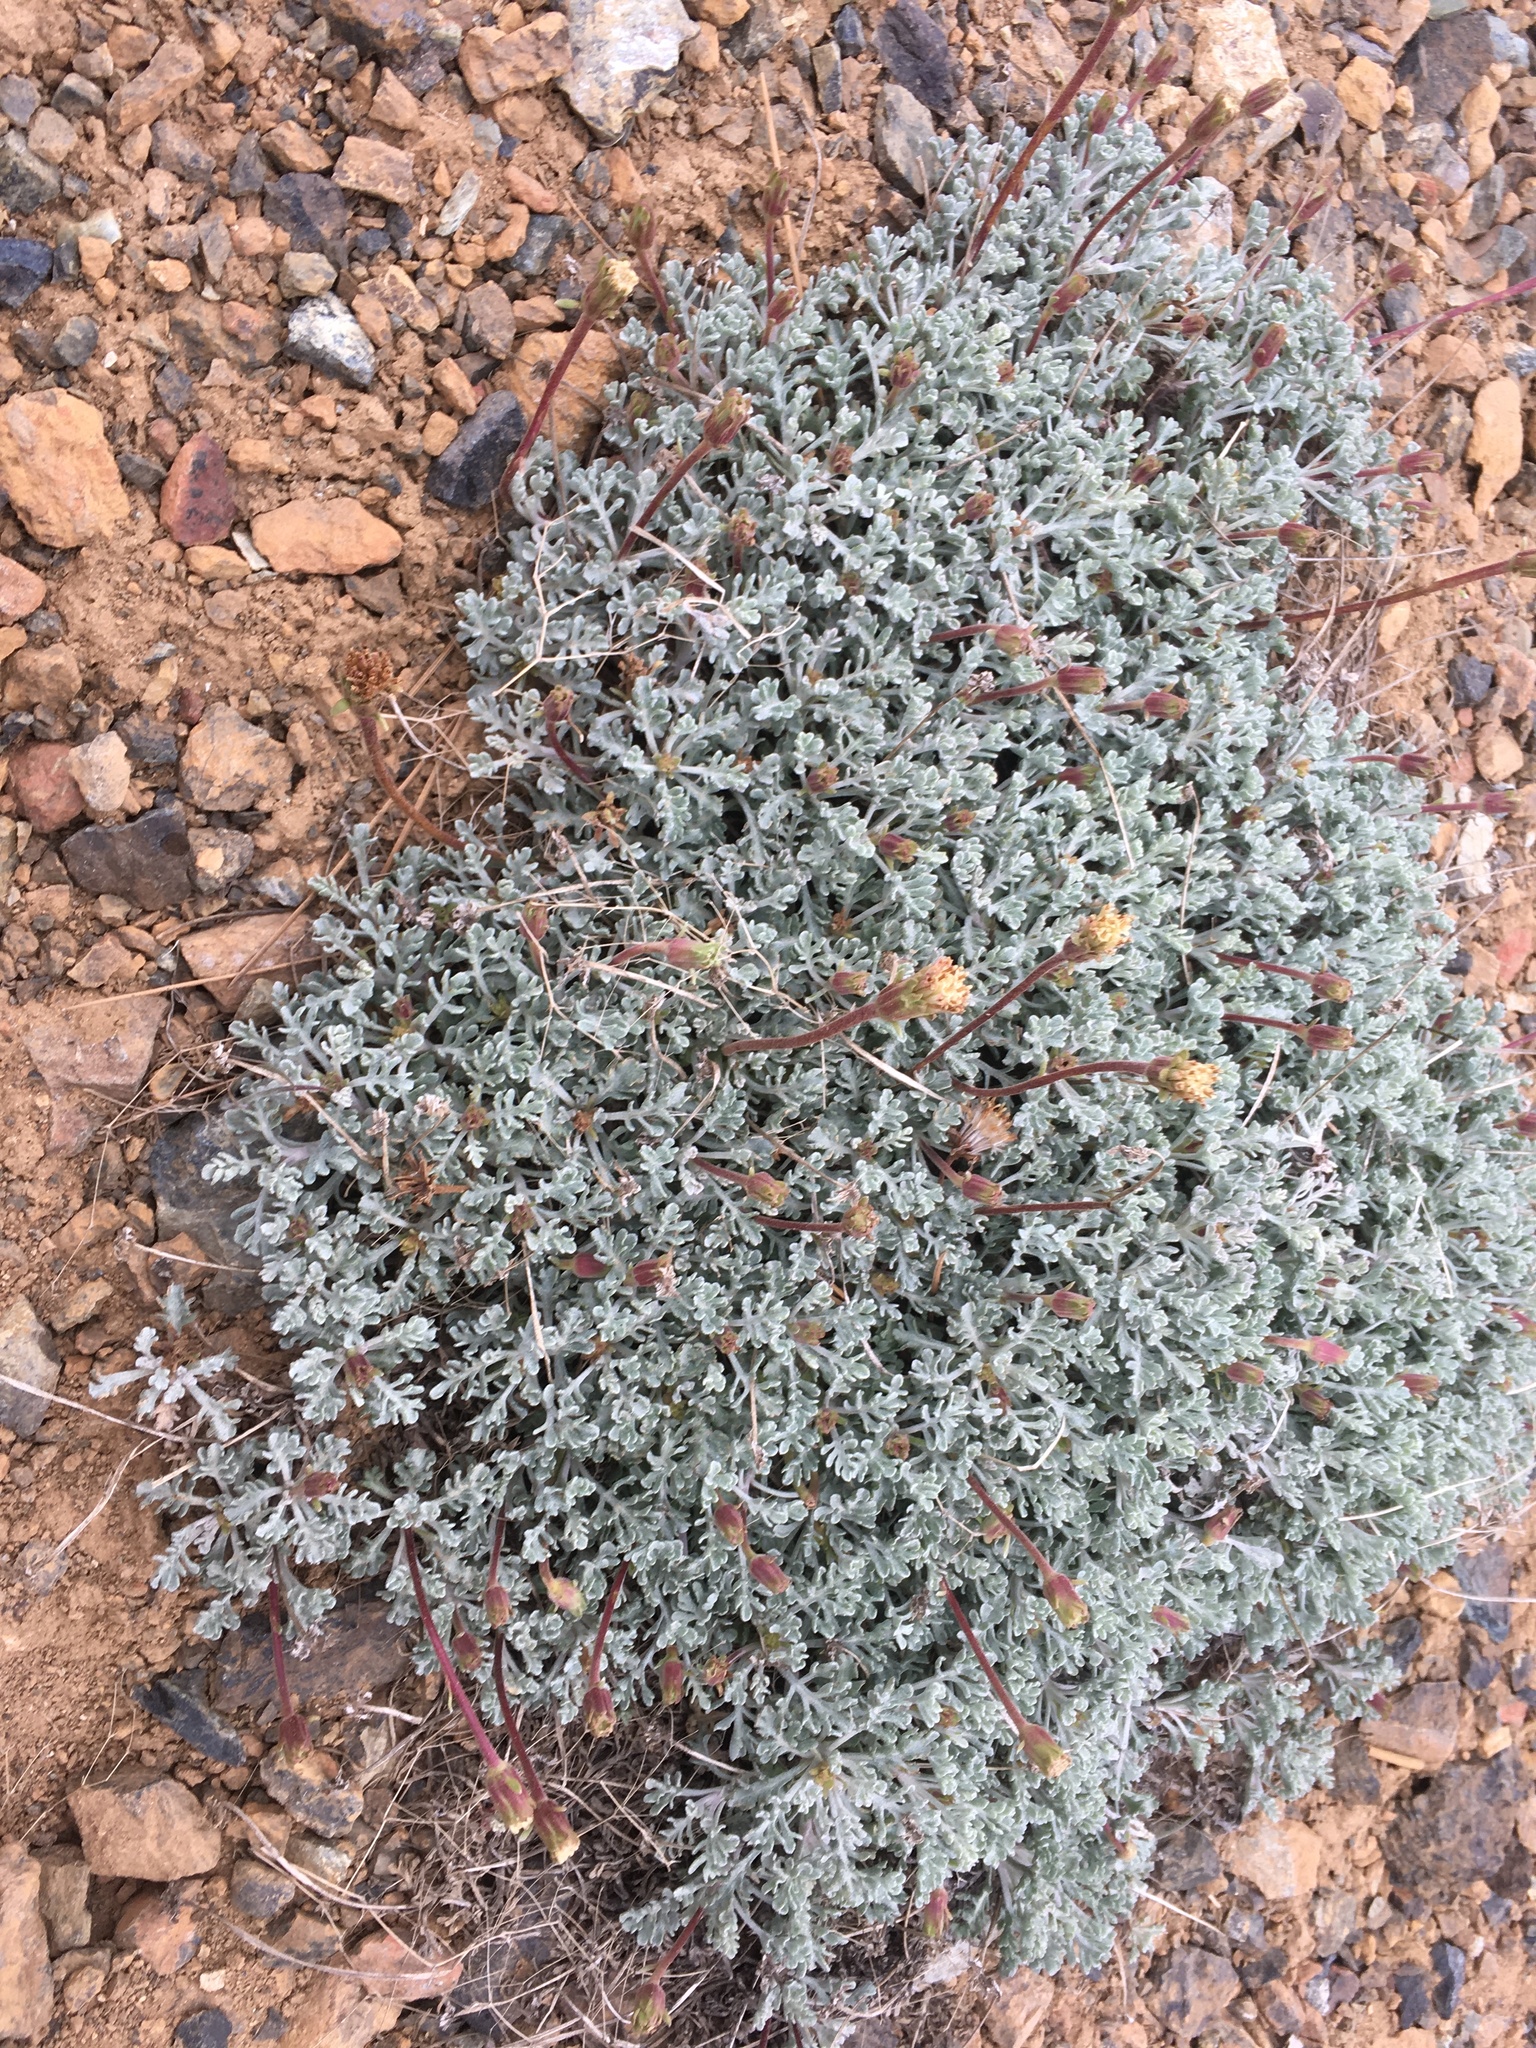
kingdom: Plantae
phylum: Tracheophyta
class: Magnoliopsida
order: Asterales
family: Asteraceae
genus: Chaenactis
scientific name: Chaenactis suffrutescens
